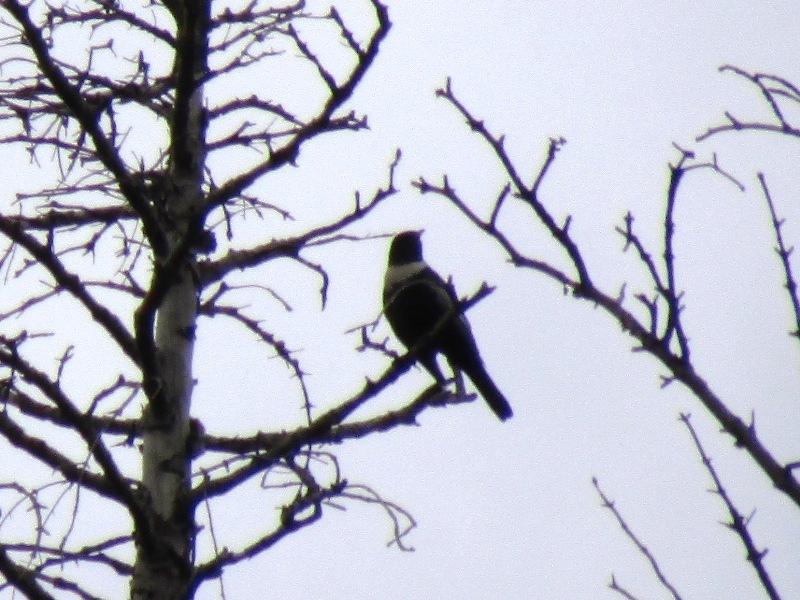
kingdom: Animalia
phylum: Chordata
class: Aves
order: Passeriformes
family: Turdidae
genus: Turdus
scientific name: Turdus torquatus
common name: Ring ouzel
